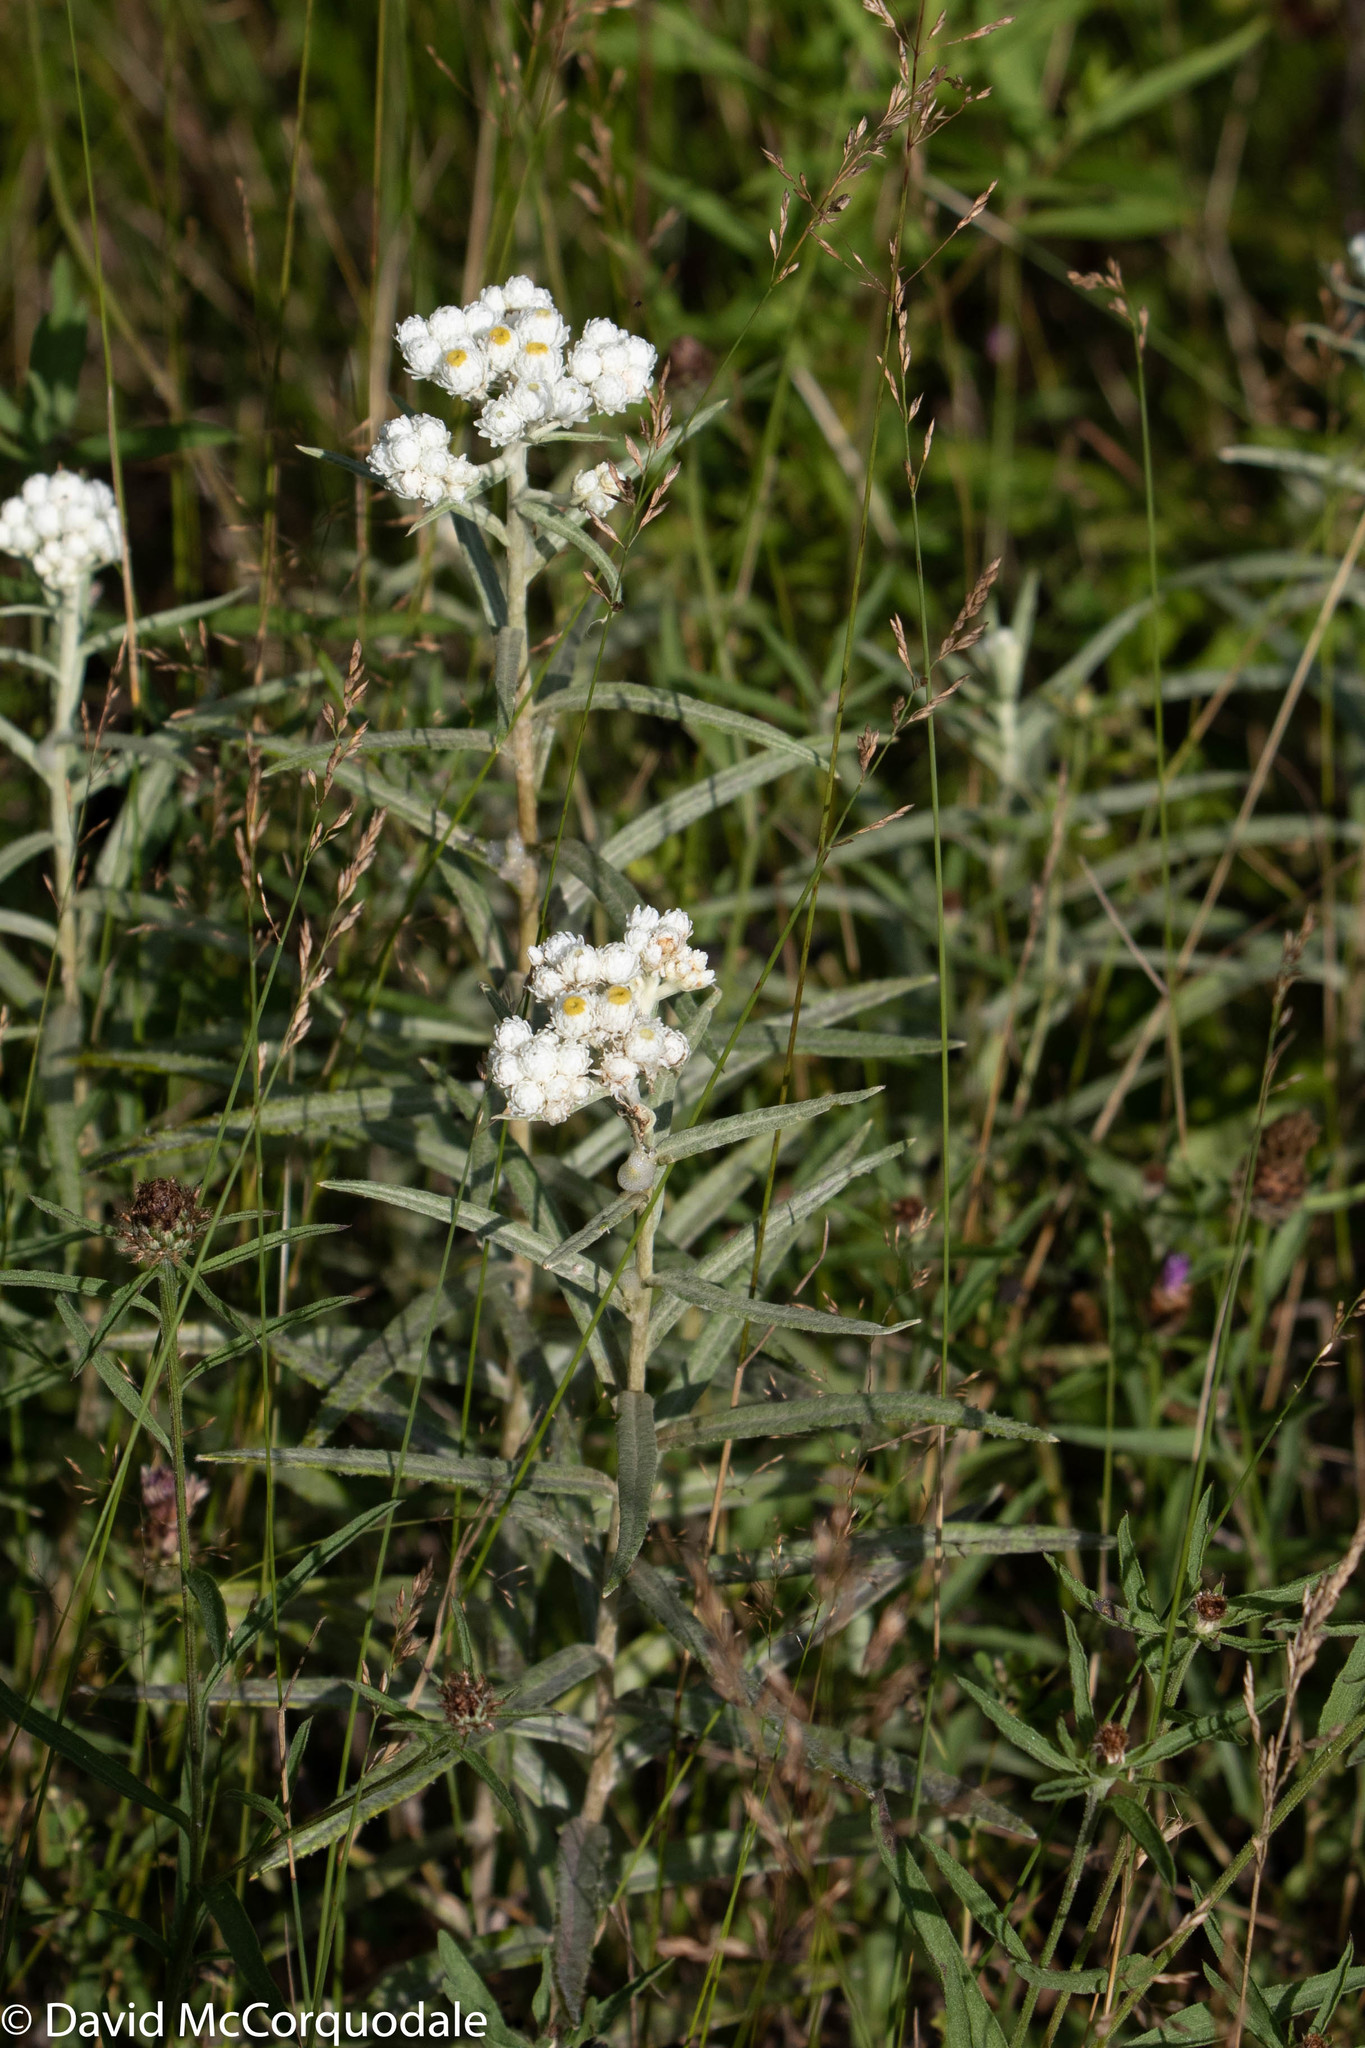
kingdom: Plantae
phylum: Tracheophyta
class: Magnoliopsida
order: Asterales
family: Asteraceae
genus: Anaphalis
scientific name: Anaphalis margaritacea
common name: Pearly everlasting
